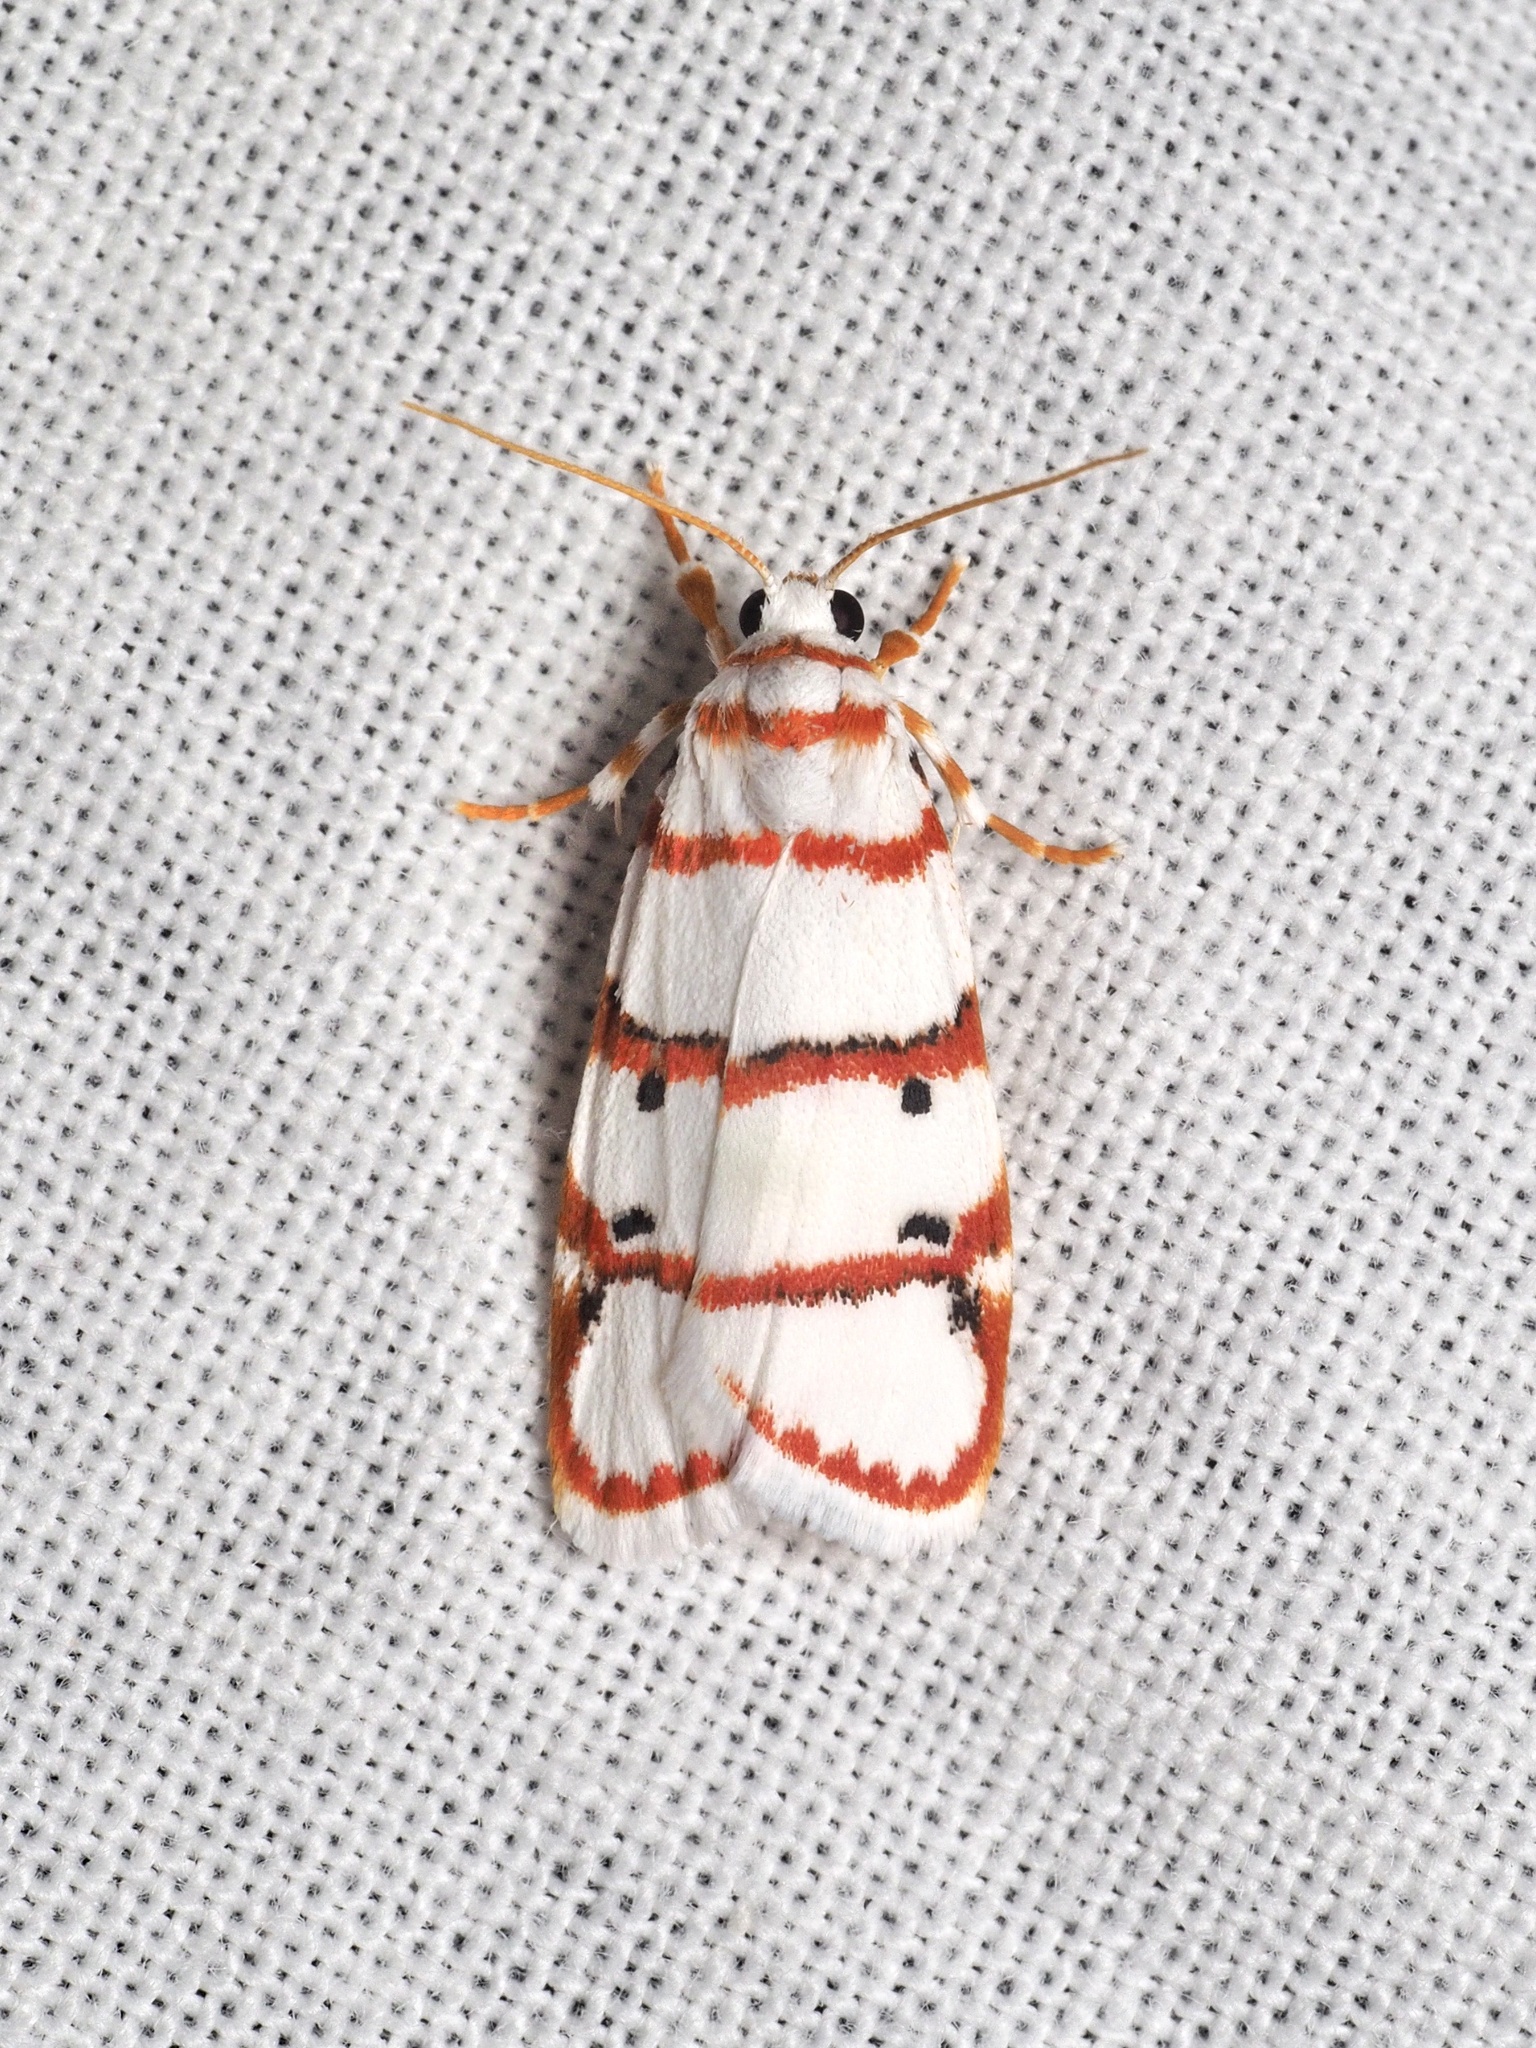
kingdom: Animalia
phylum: Arthropoda
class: Insecta
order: Lepidoptera
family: Erebidae
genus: Cyana
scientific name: Cyana nemasisha
